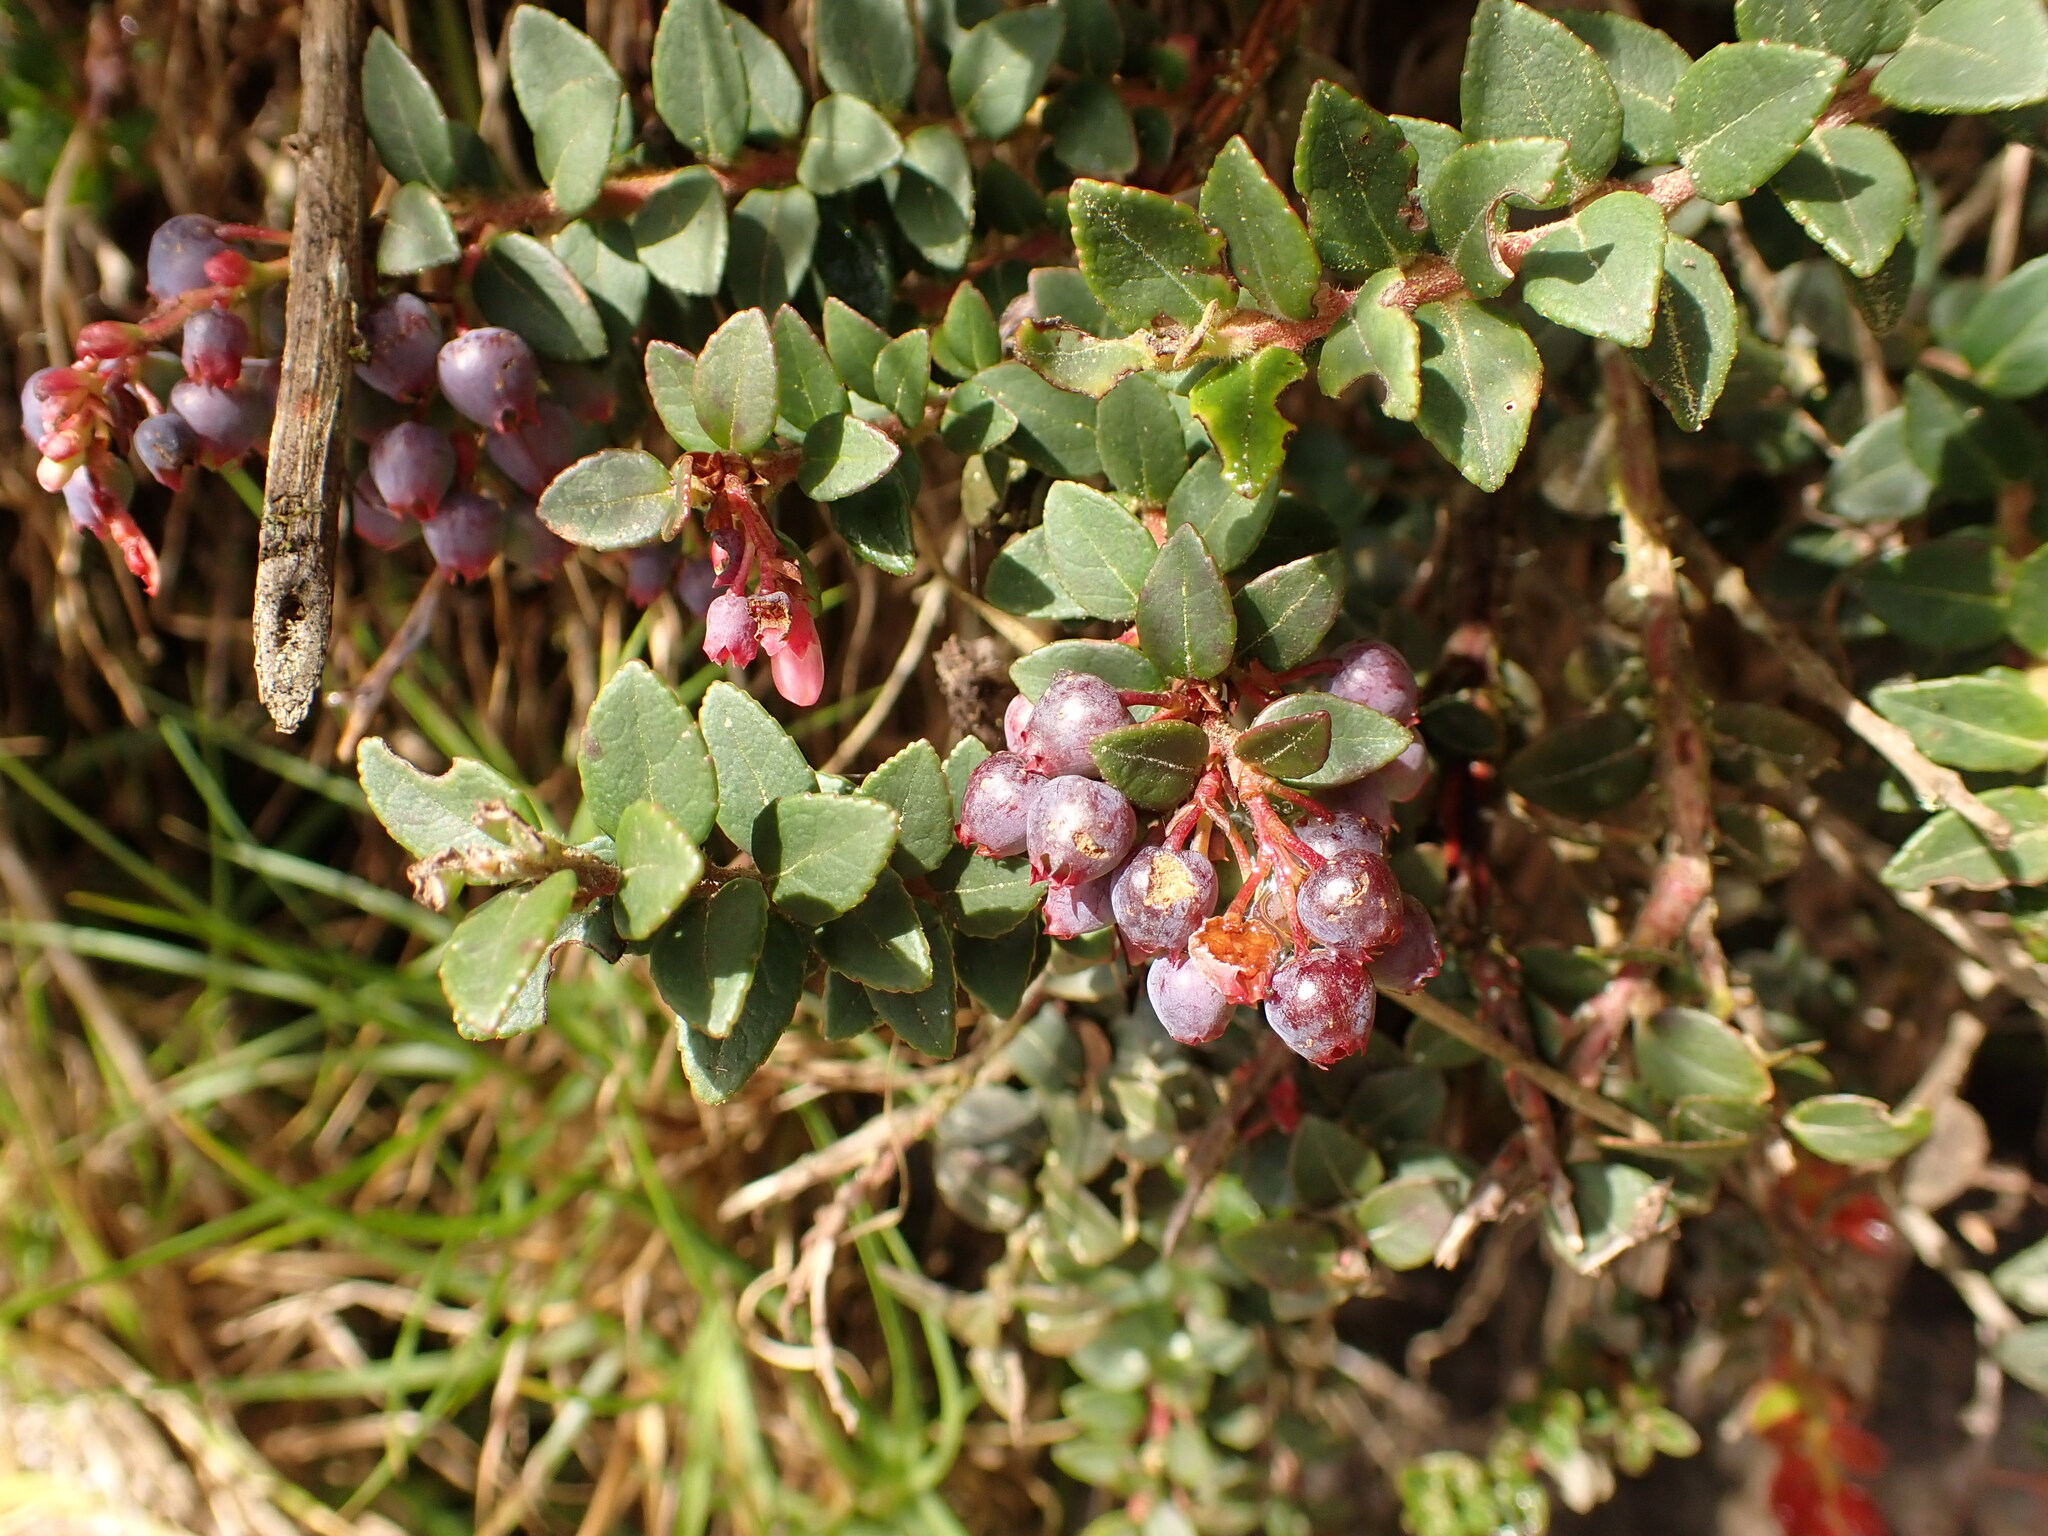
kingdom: Plantae
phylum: Tracheophyta
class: Magnoliopsida
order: Ericales
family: Ericaceae
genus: Vaccinium
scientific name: Vaccinium floribundum
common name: Colombian blueberry
